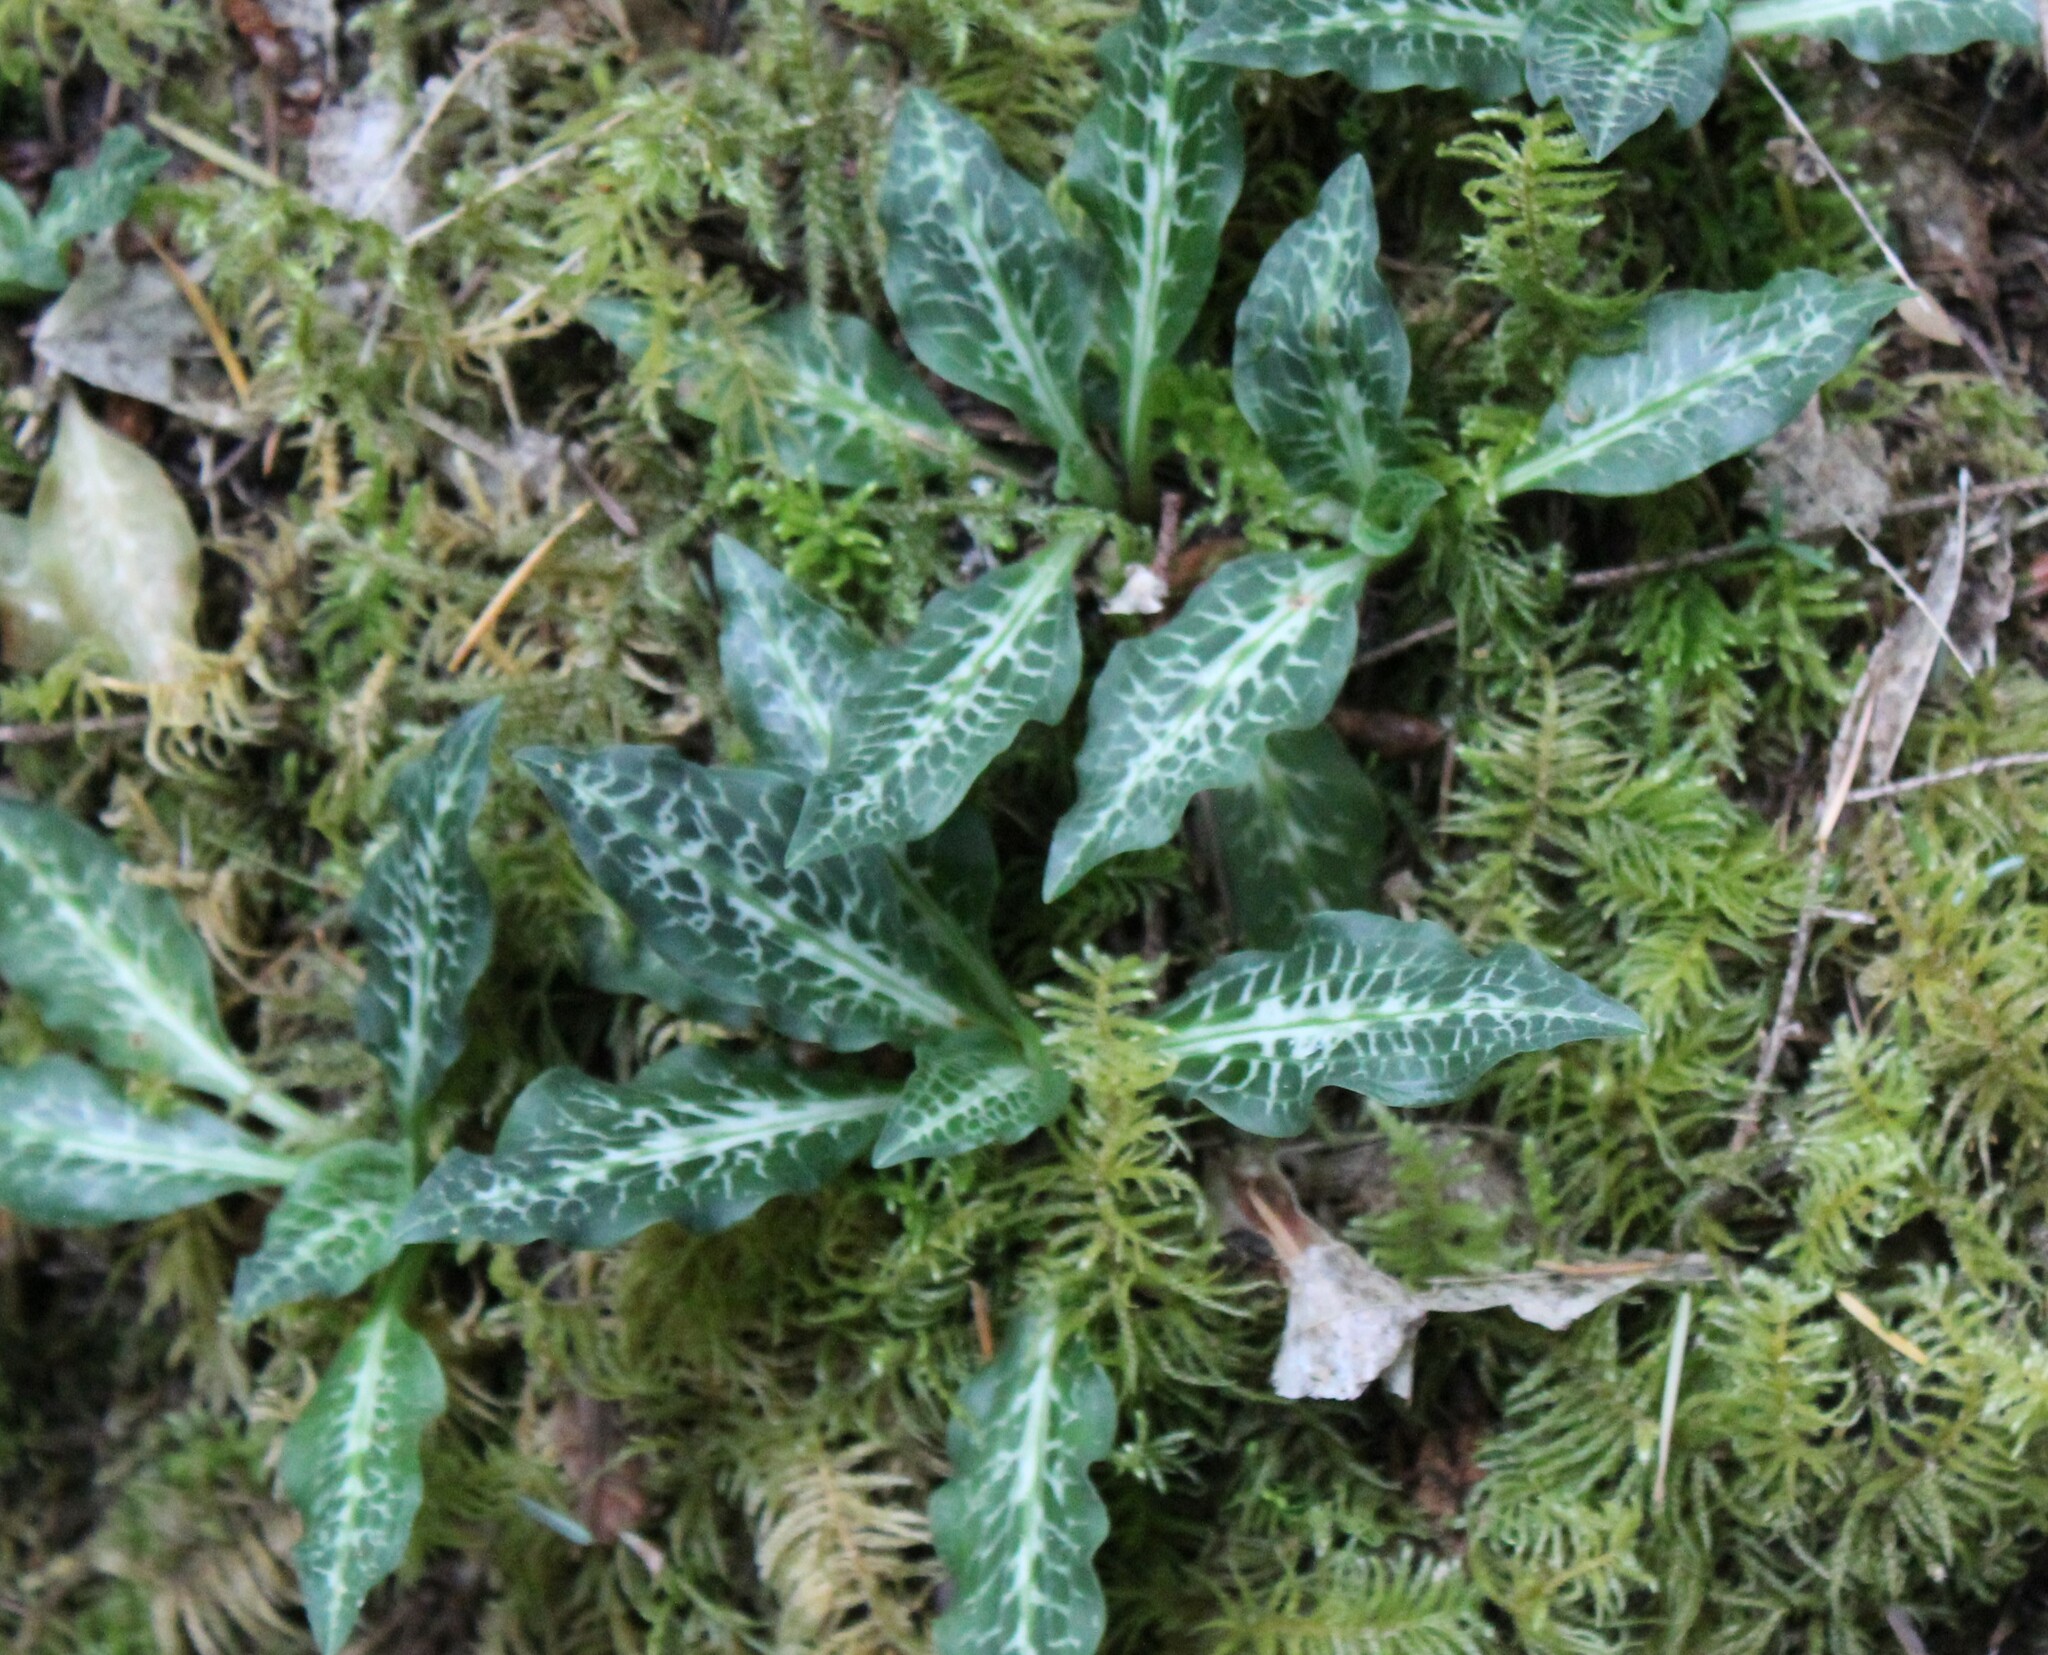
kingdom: Plantae
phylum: Tracheophyta
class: Liliopsida
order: Asparagales
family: Orchidaceae
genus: Goodyera
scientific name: Goodyera oblongifolia
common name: Giant rattlesnake-plantain
